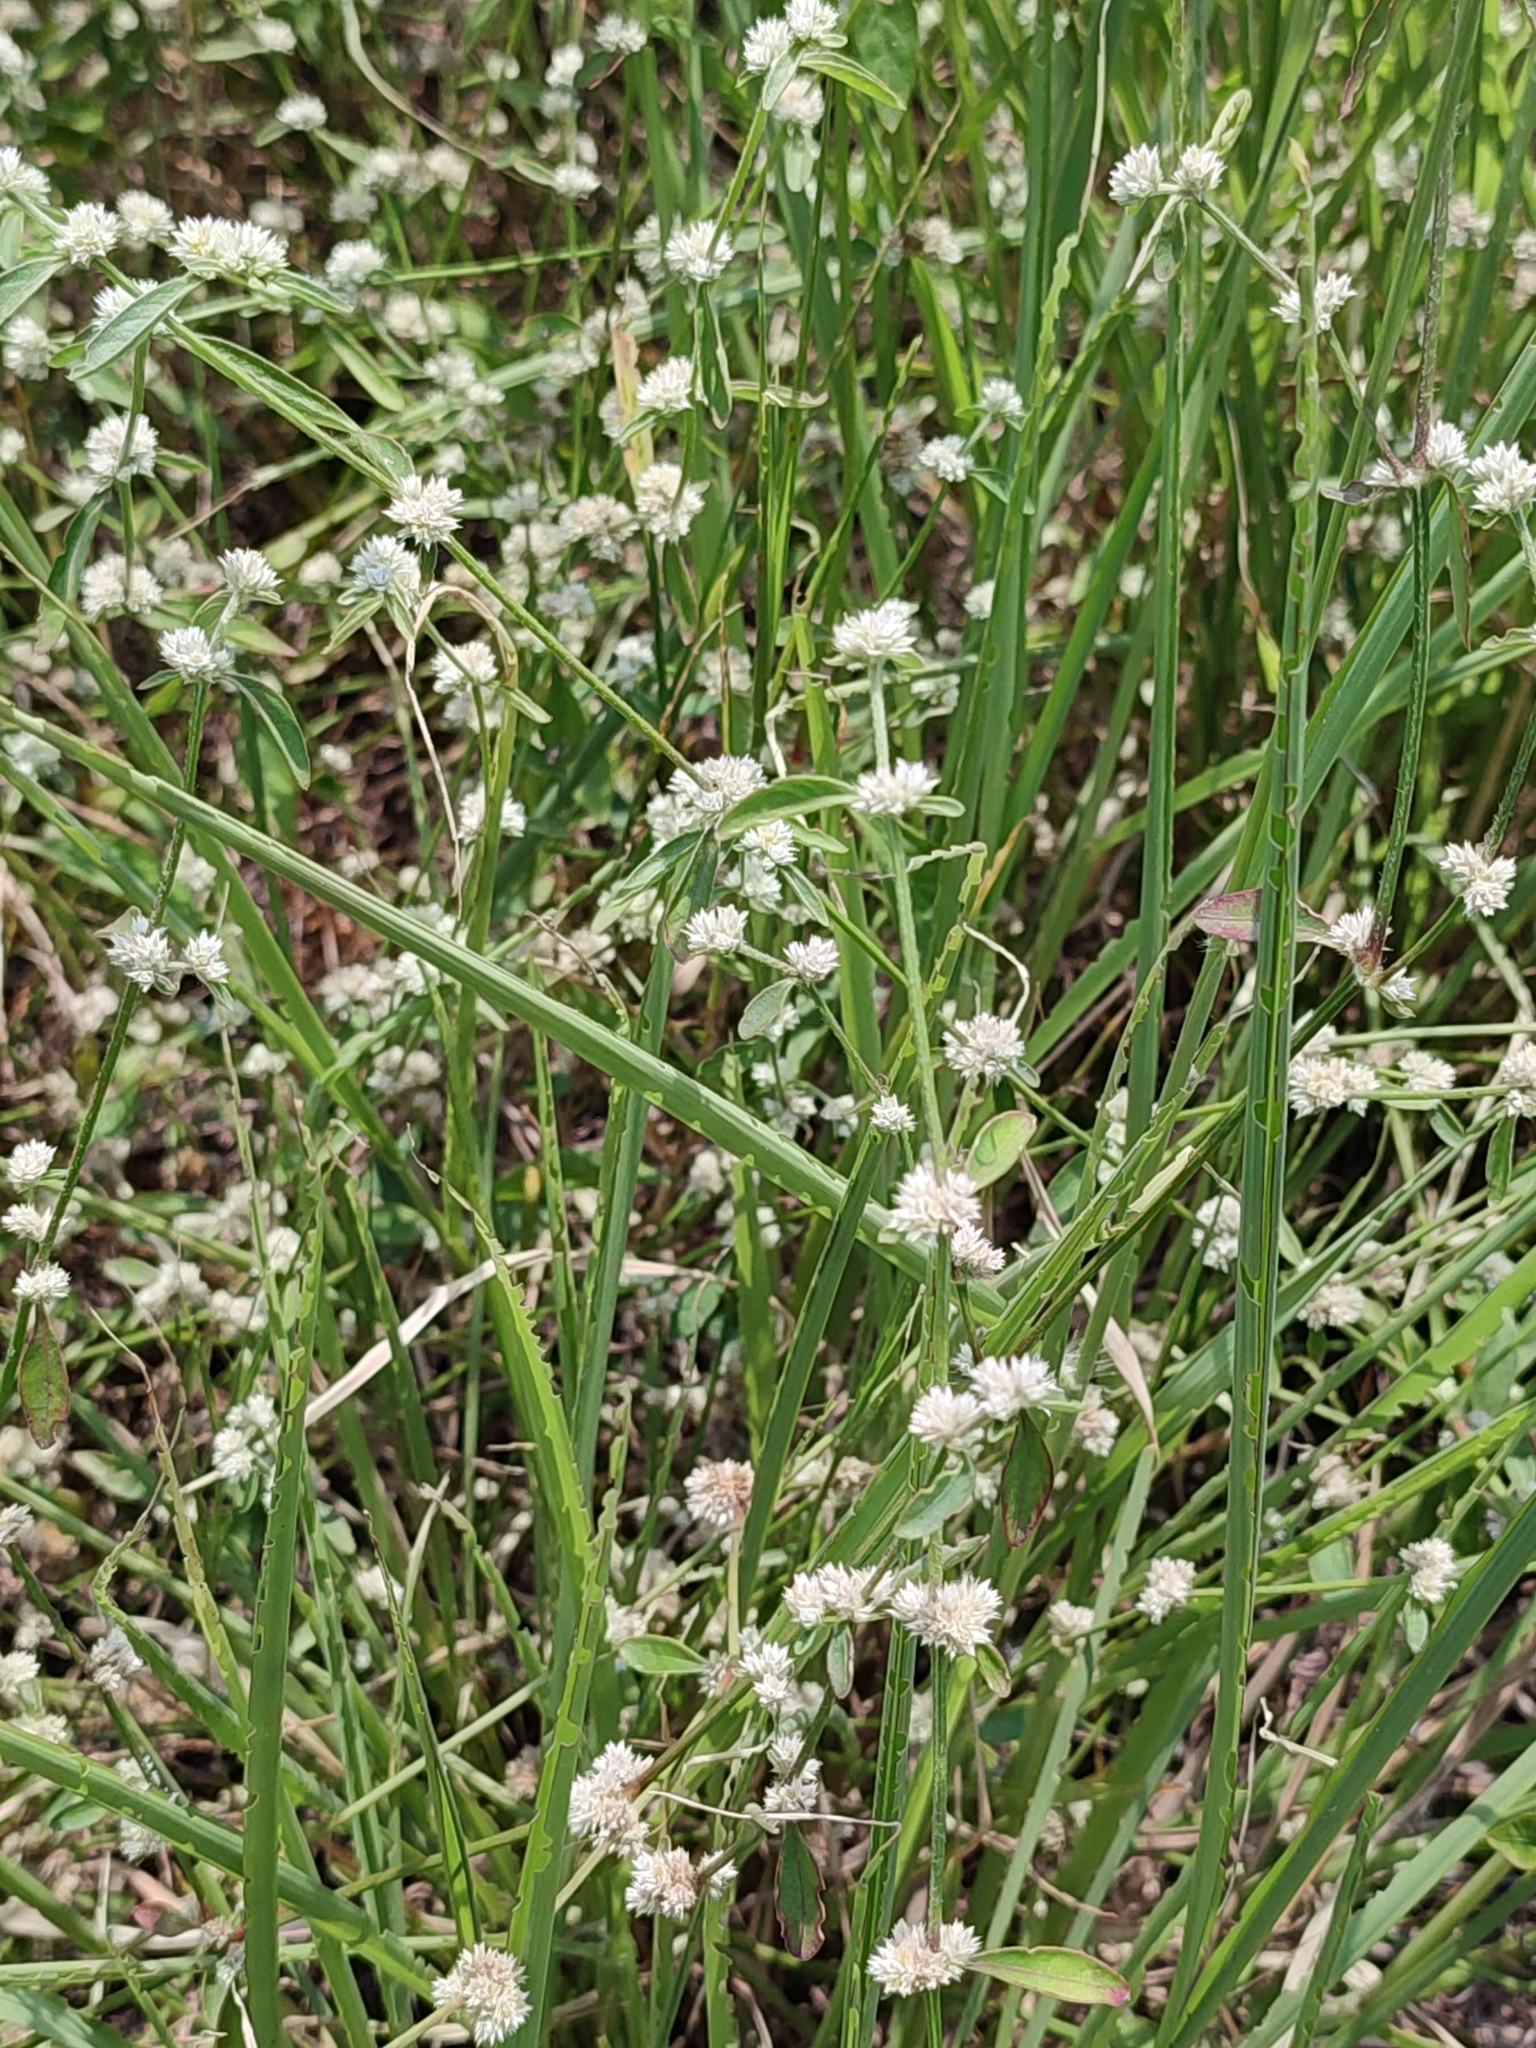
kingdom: Plantae
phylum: Tracheophyta
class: Magnoliopsida
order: Caryophyllales
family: Amaranthaceae
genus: Alternanthera
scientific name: Alternanthera ficoidea
